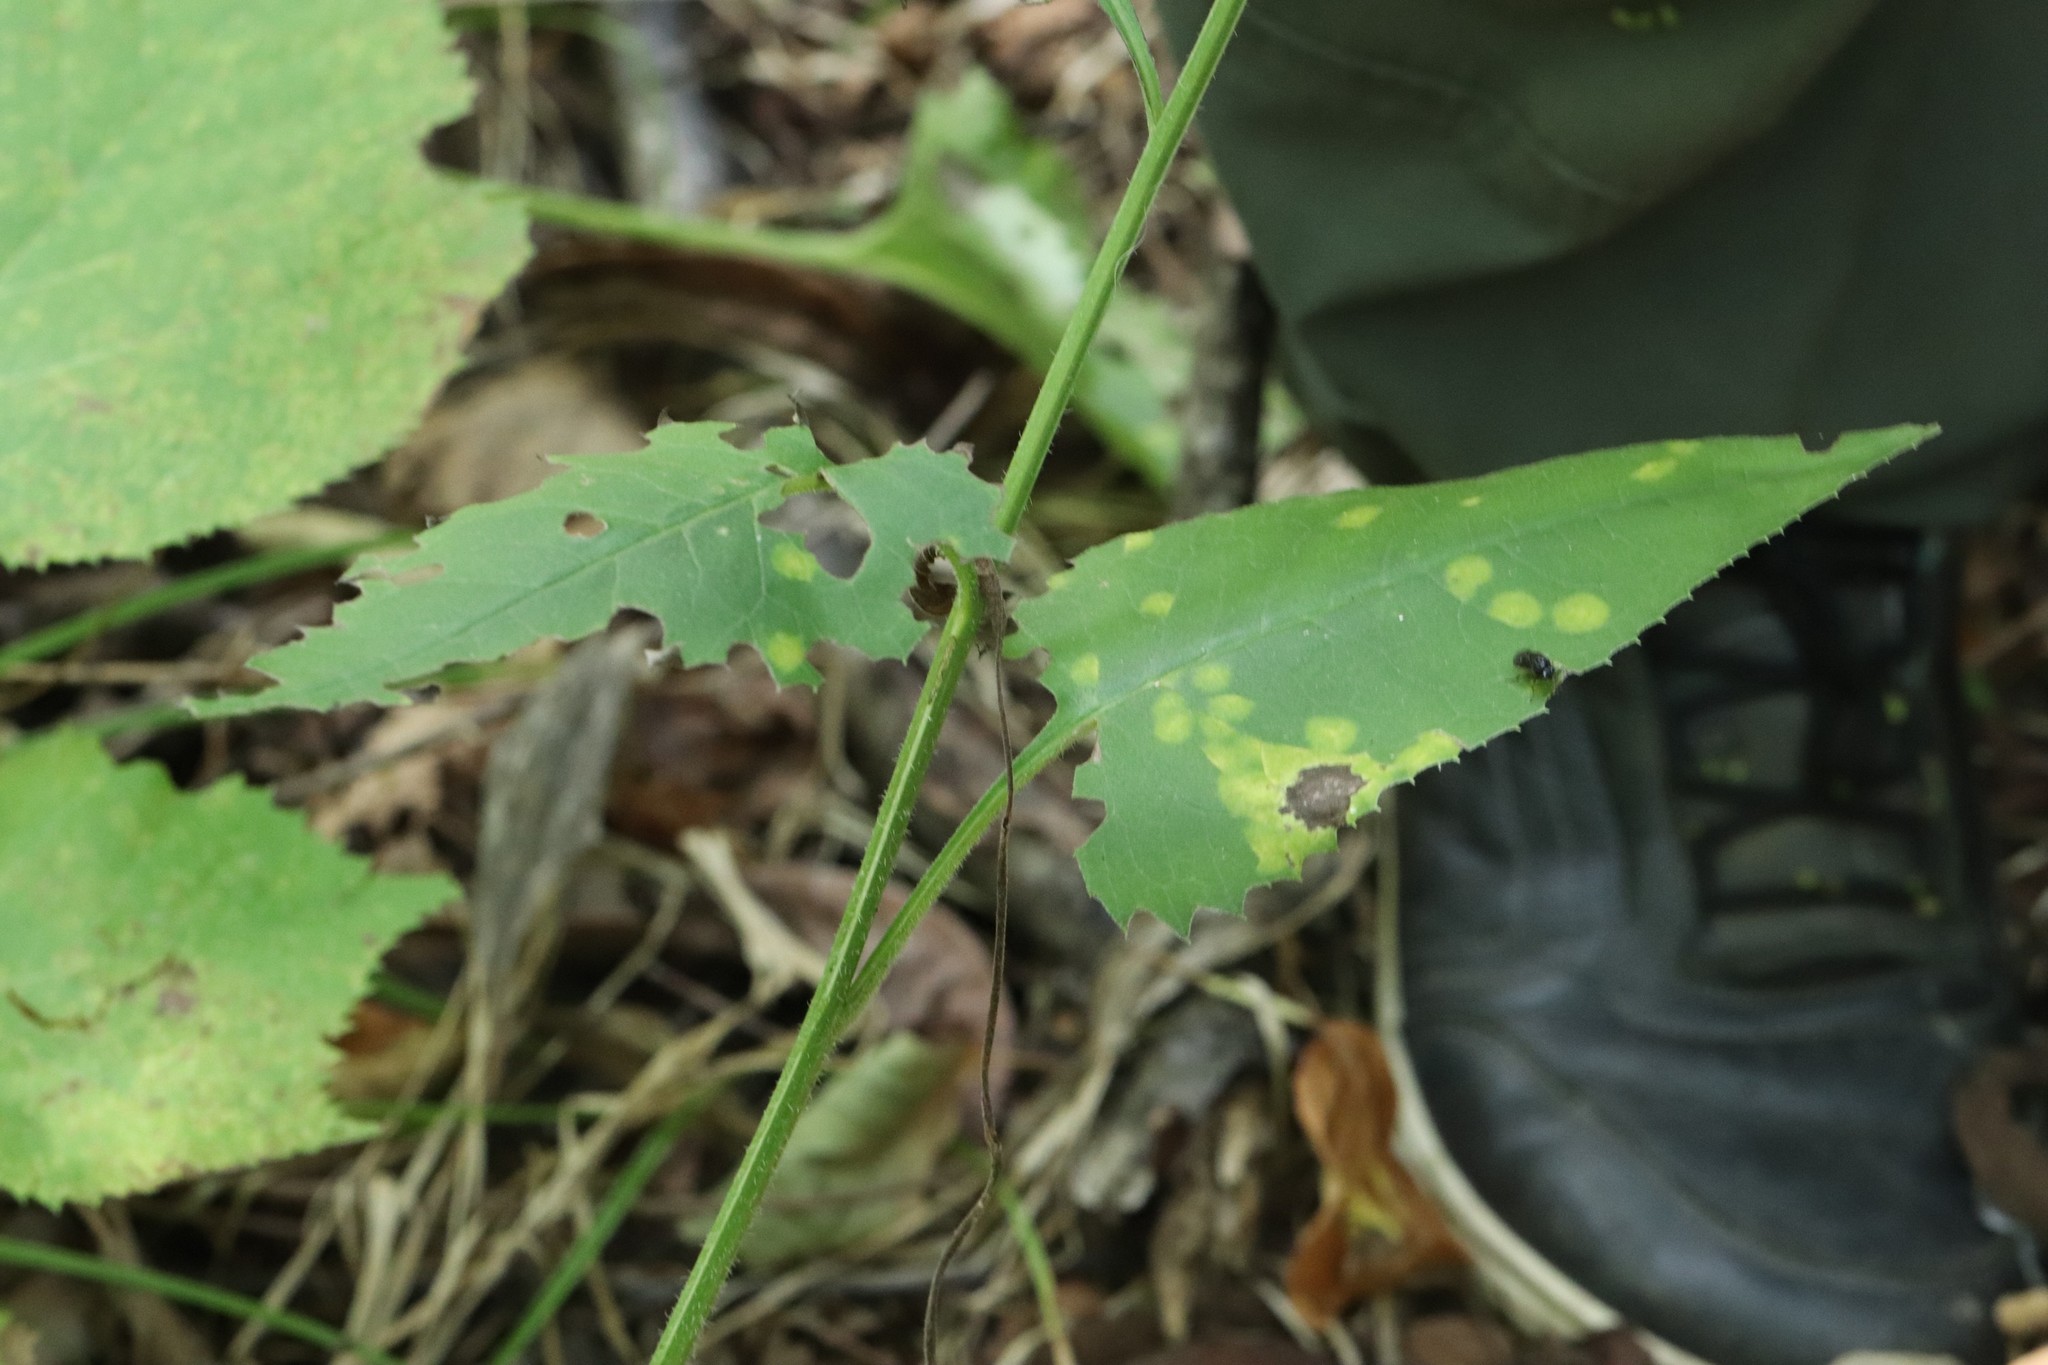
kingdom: Plantae
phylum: Tracheophyta
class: Magnoliopsida
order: Asterales
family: Asteraceae
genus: Saussurea
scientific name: Saussurea grandifolia
